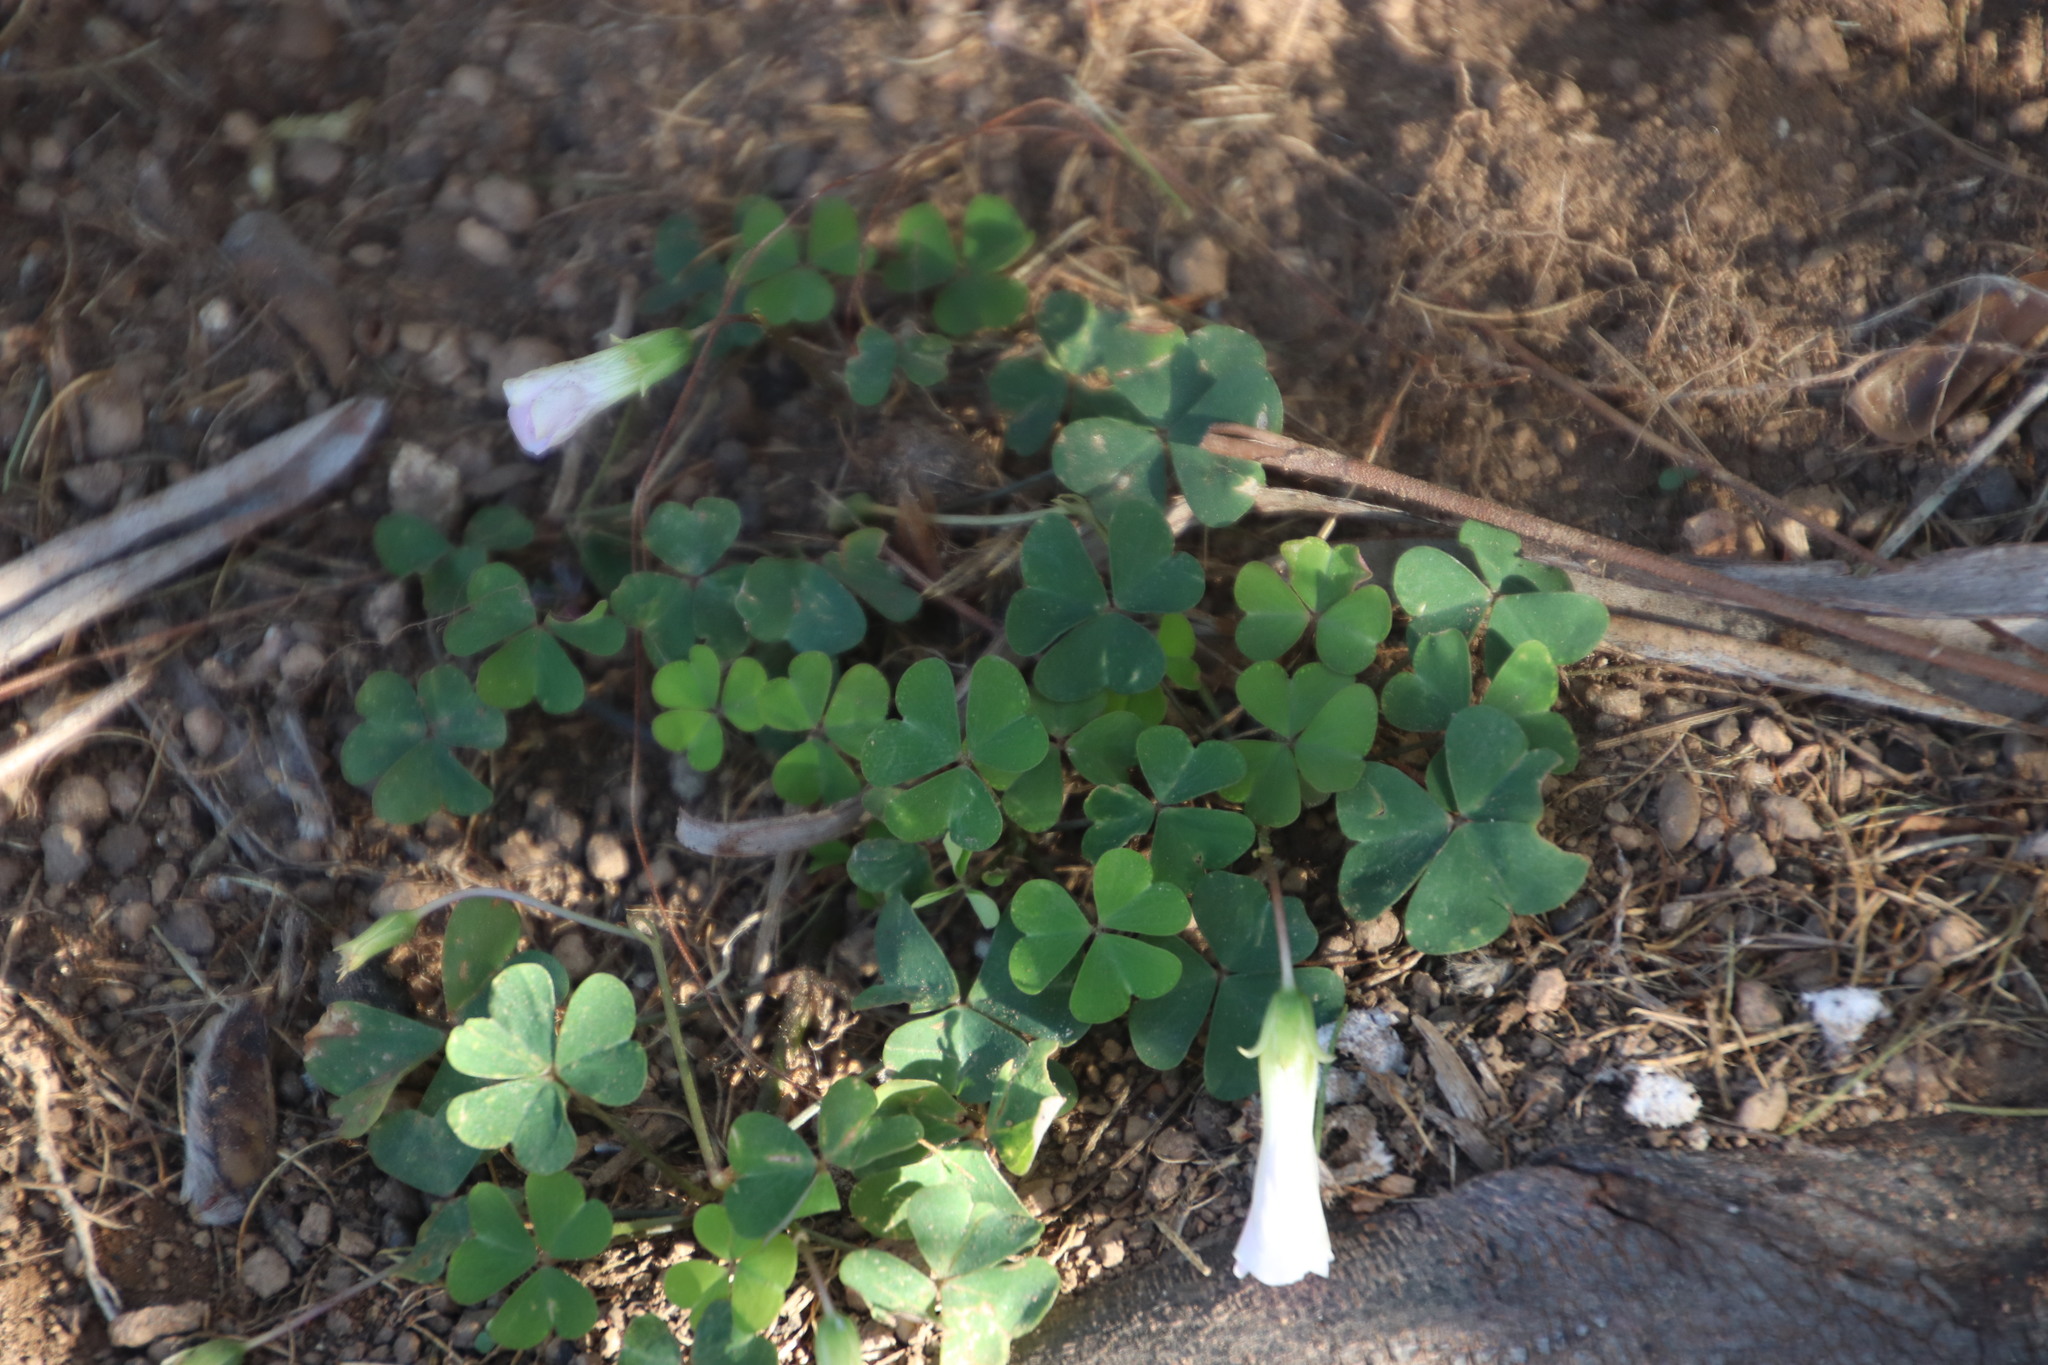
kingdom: Plantae
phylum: Tracheophyta
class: Magnoliopsida
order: Oxalidales
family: Oxalidaceae
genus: Oxalis
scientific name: Oxalis incarnata
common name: Pale pink-sorrel
